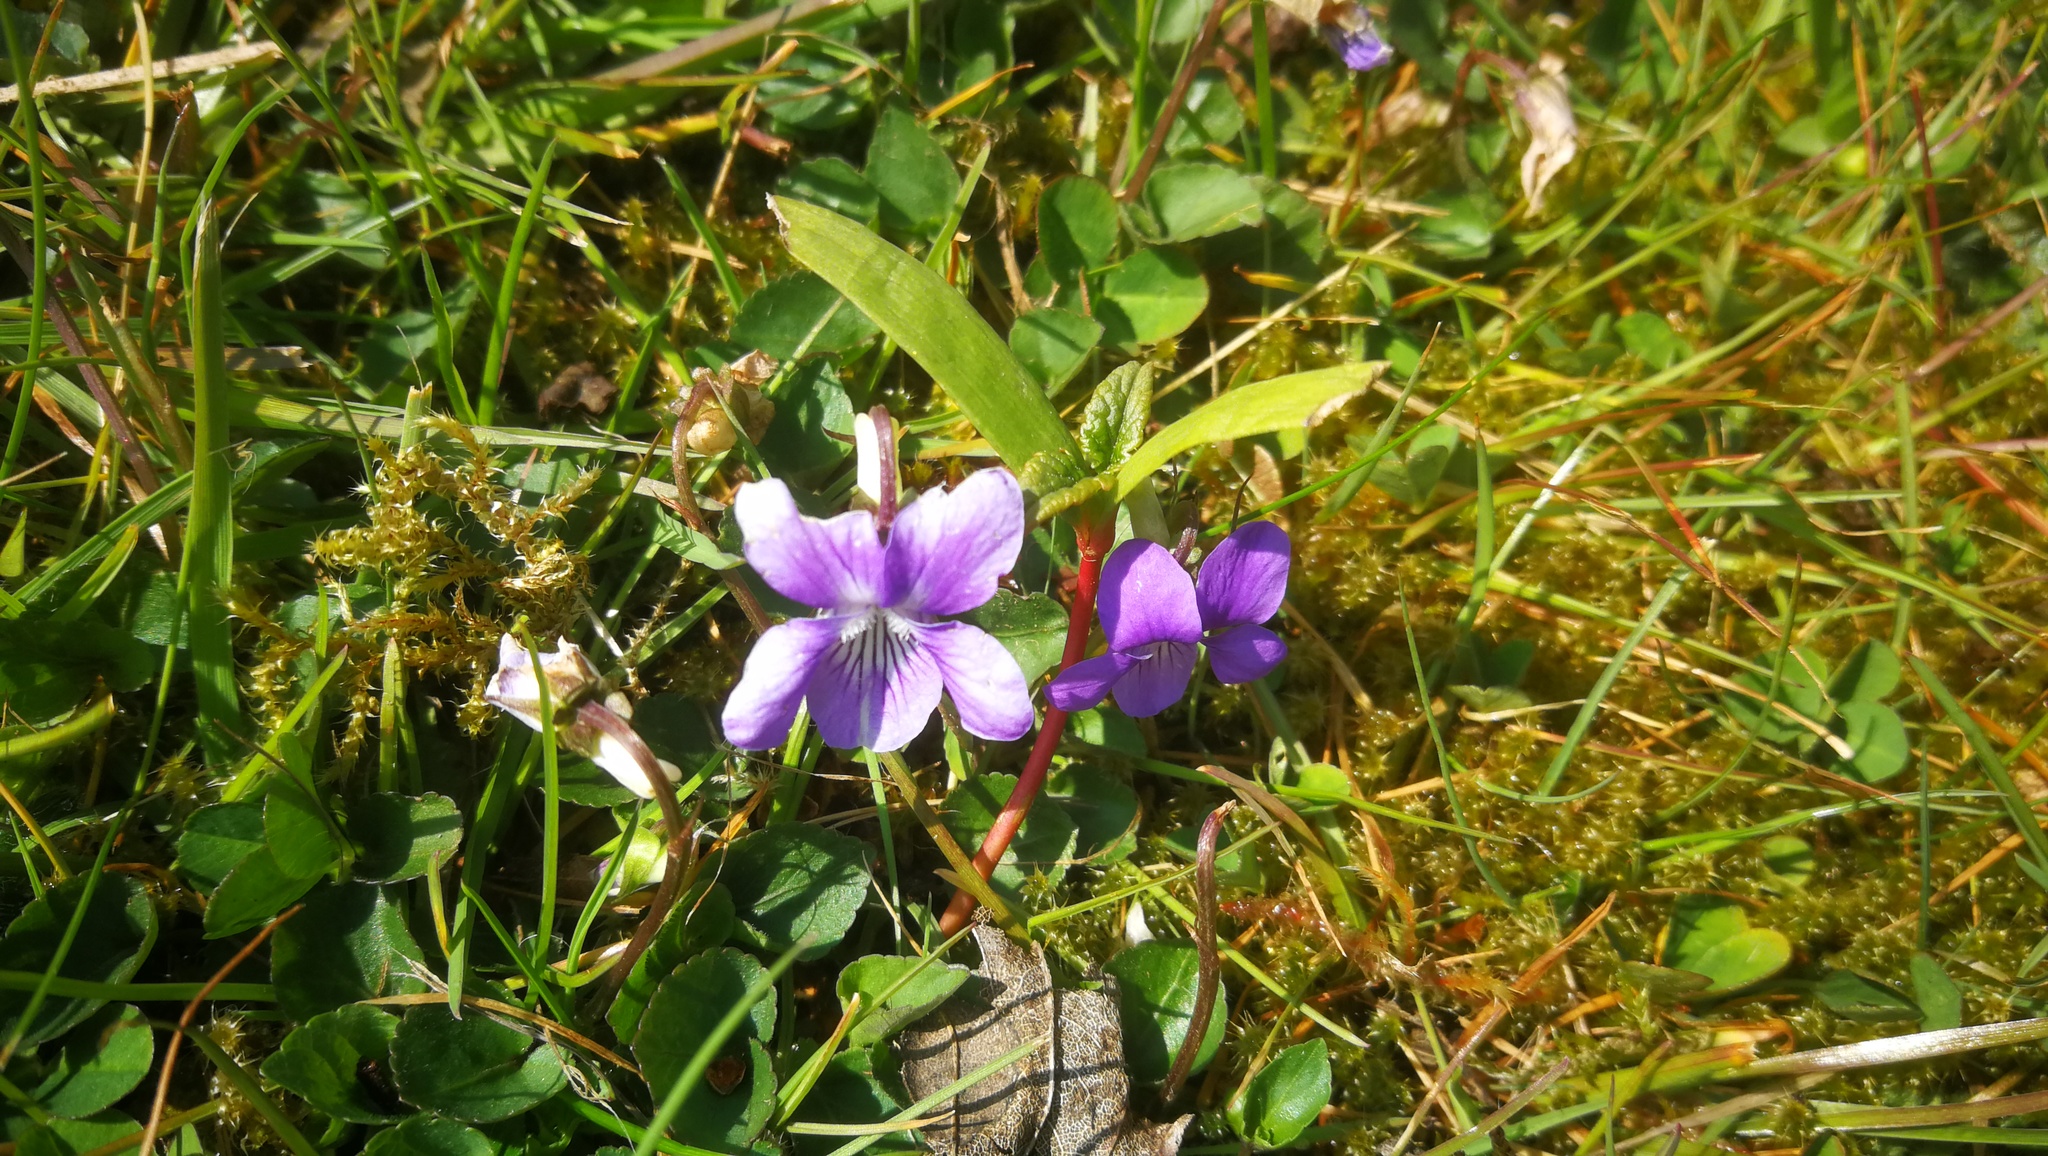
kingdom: Plantae
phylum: Tracheophyta
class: Magnoliopsida
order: Malpighiales
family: Violaceae
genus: Viola
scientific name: Viola riviniana
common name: Common dog-violet
